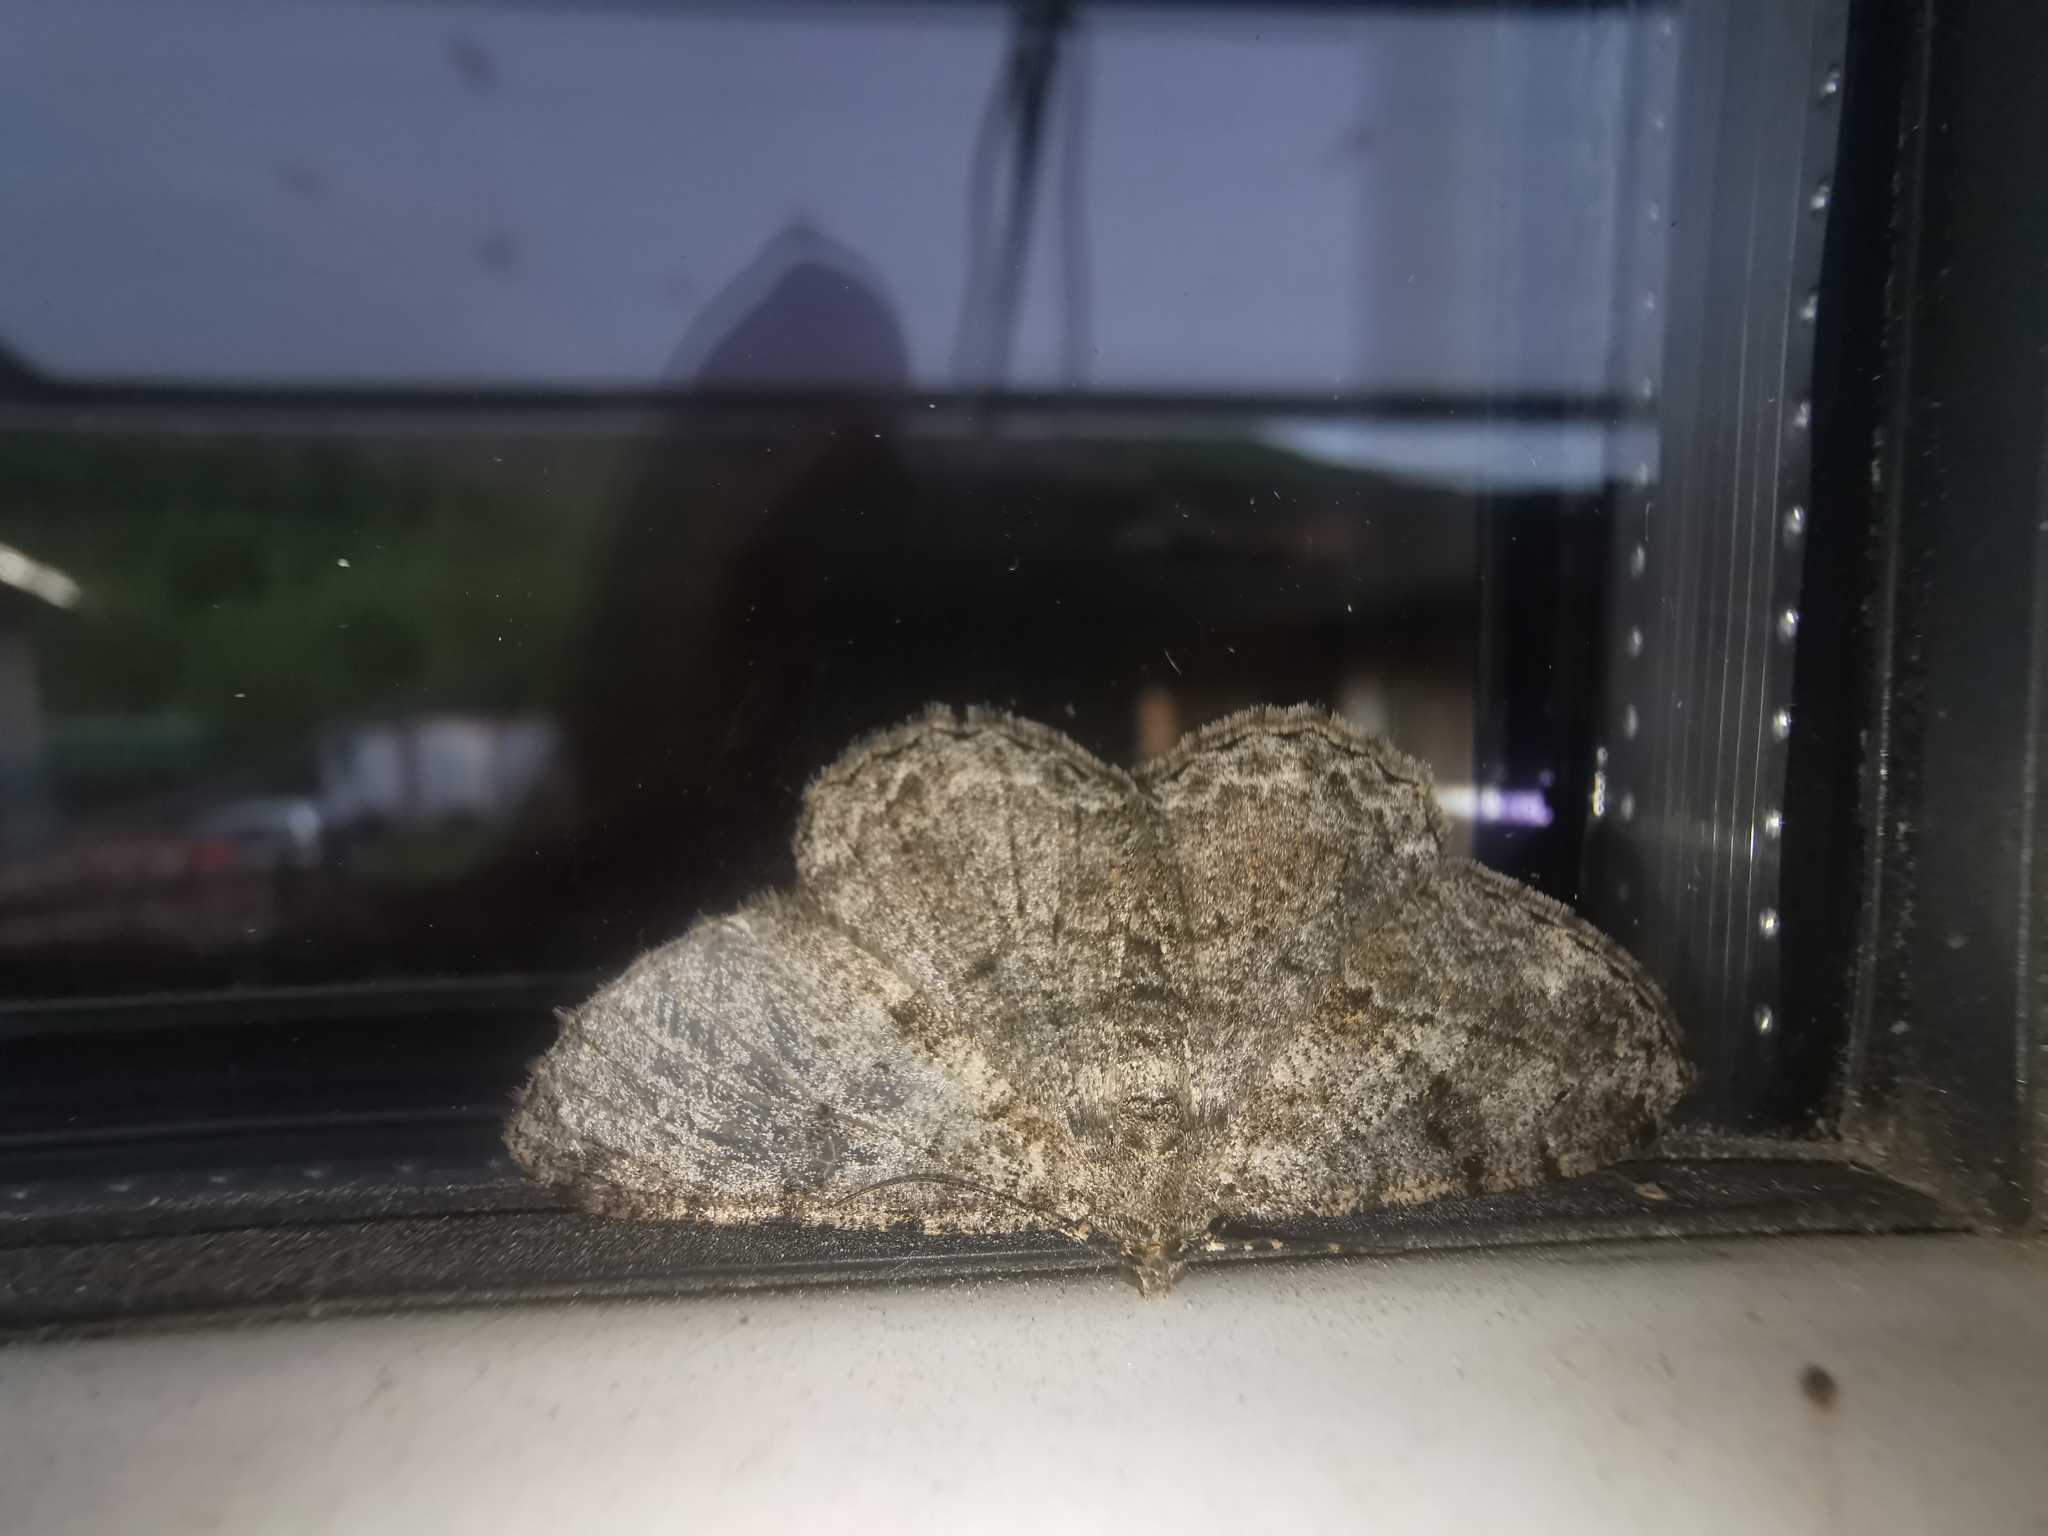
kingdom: Animalia
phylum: Arthropoda
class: Insecta
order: Lepidoptera
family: Geometridae
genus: Peribatodes
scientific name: Peribatodes rhomboidaria
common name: Willow beauty
